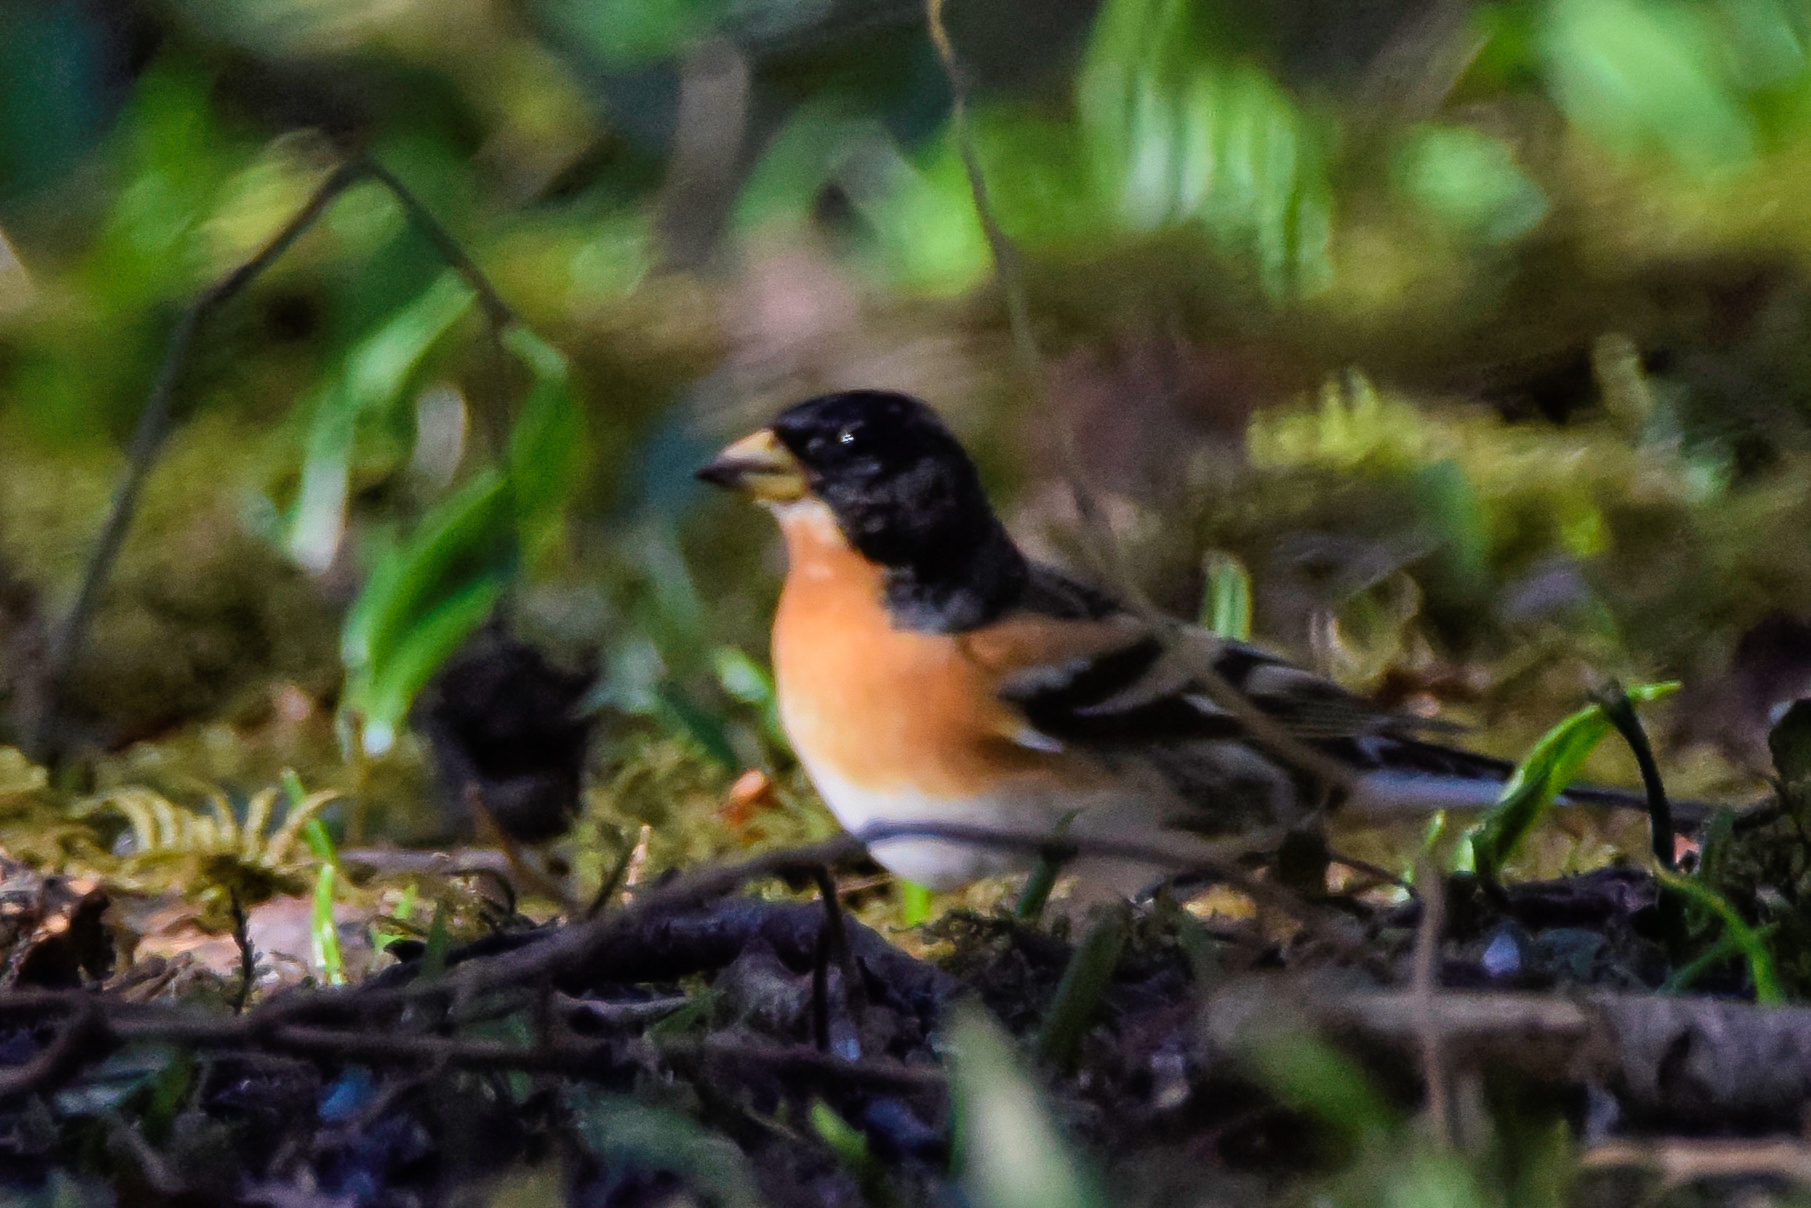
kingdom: Animalia
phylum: Chordata
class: Aves
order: Passeriformes
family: Fringillidae
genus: Fringilla
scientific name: Fringilla montifringilla
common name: Brambling
